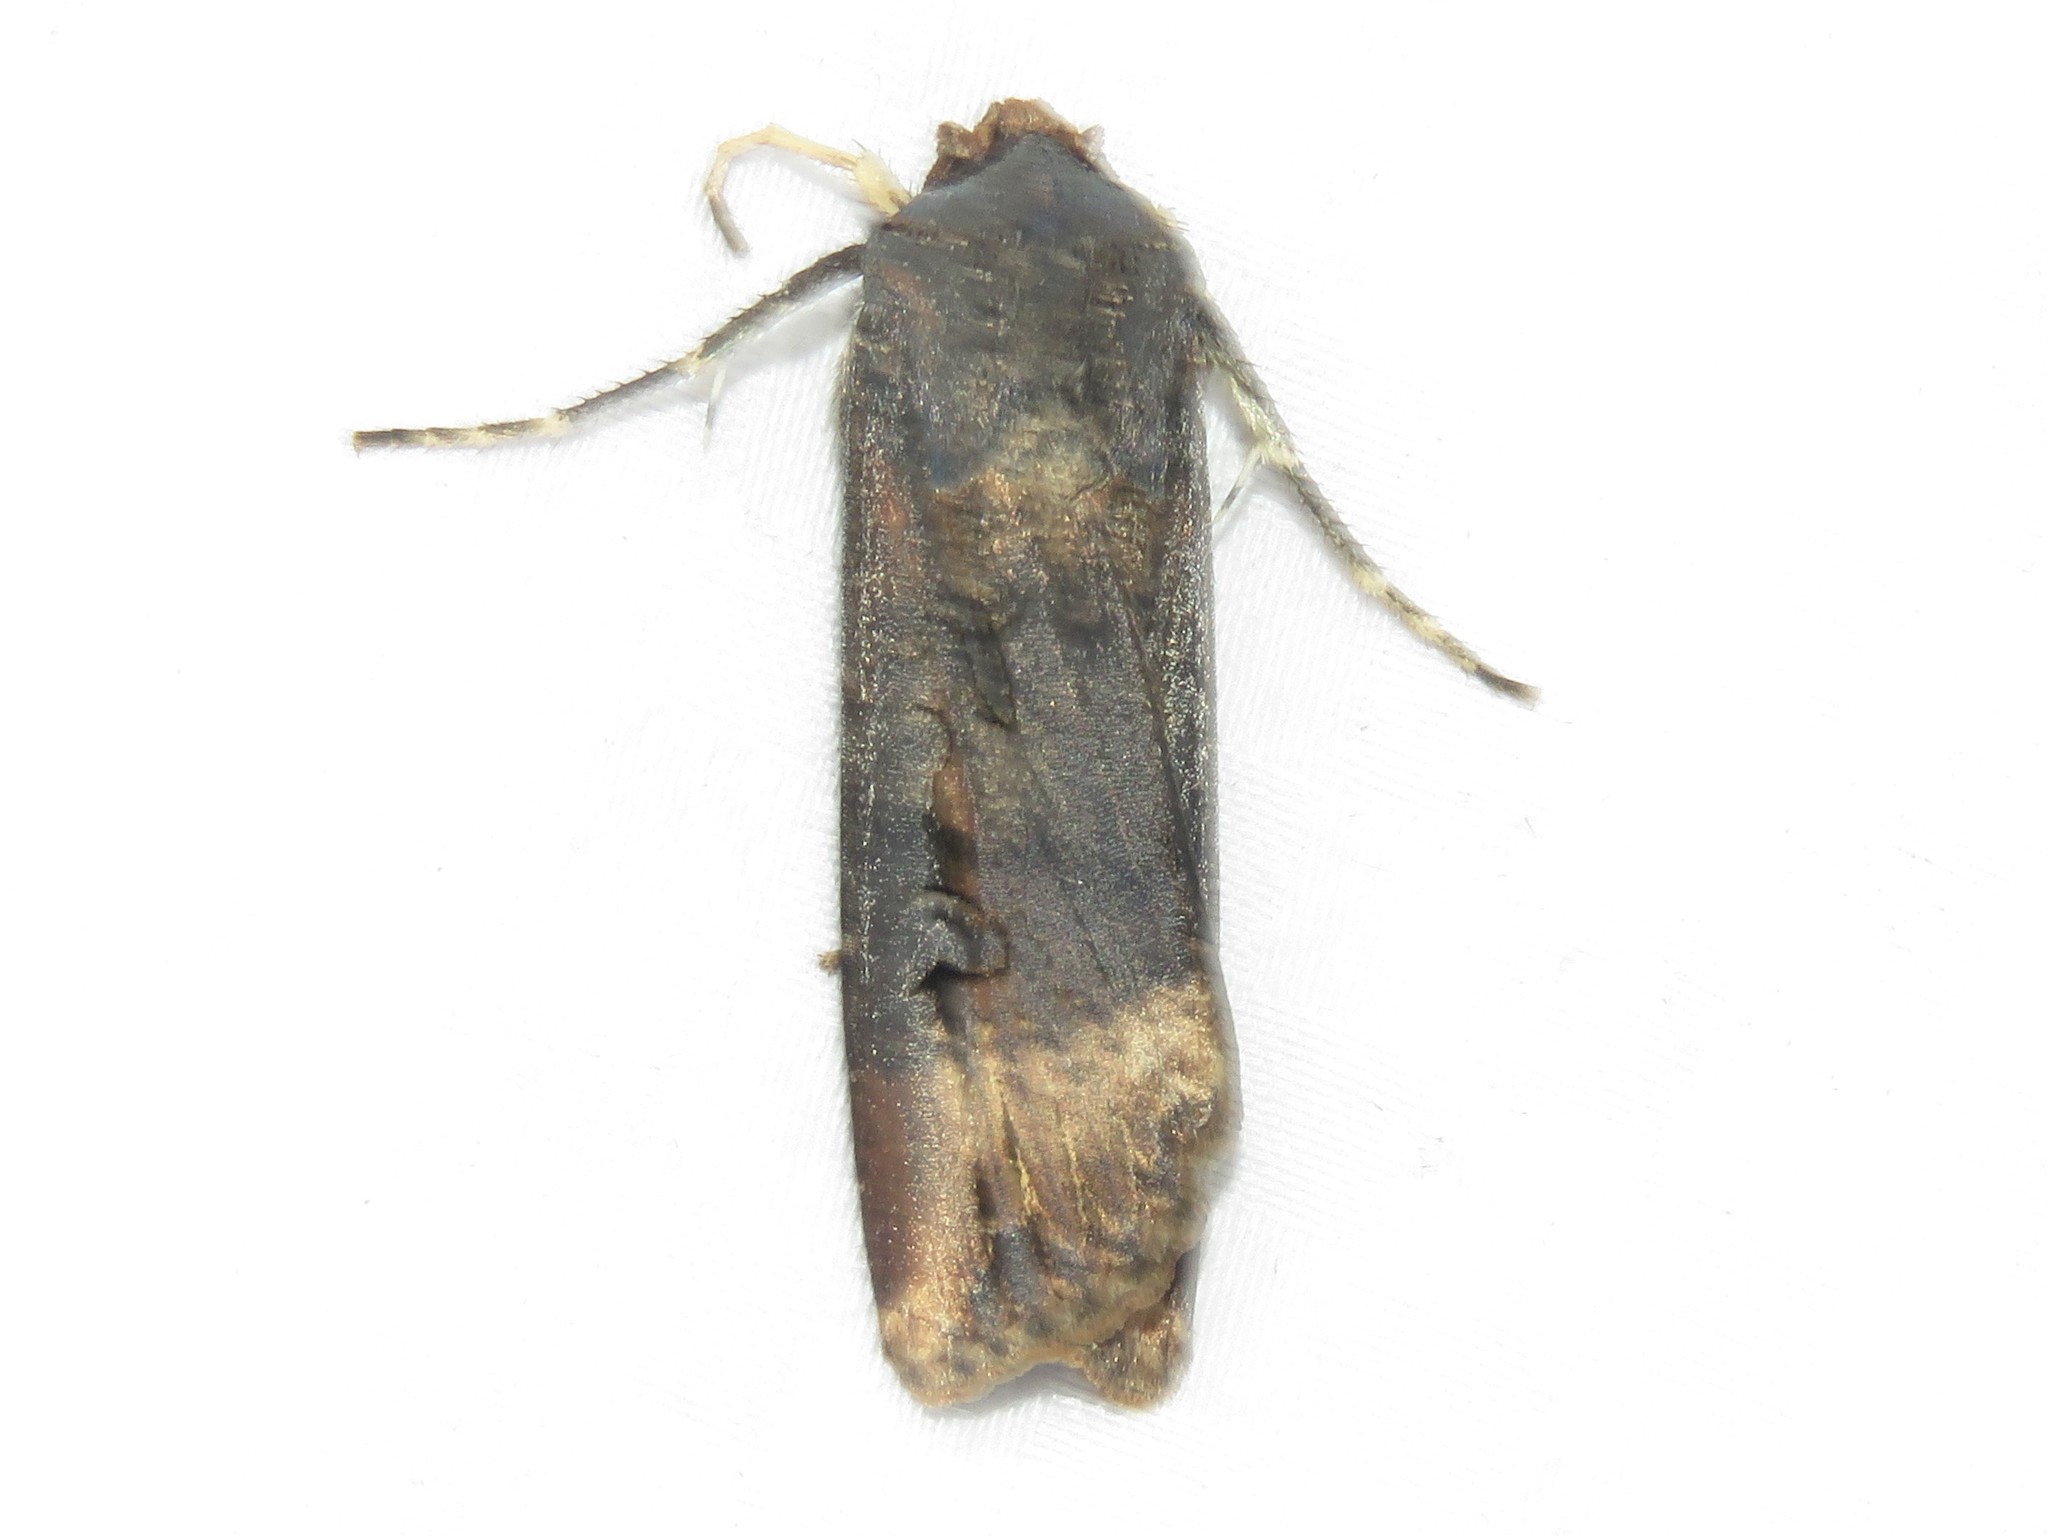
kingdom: Animalia
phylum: Arthropoda
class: Insecta
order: Lepidoptera
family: Noctuidae
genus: Agrotis
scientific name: Agrotis ipsilon
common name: Dark sword-grass
